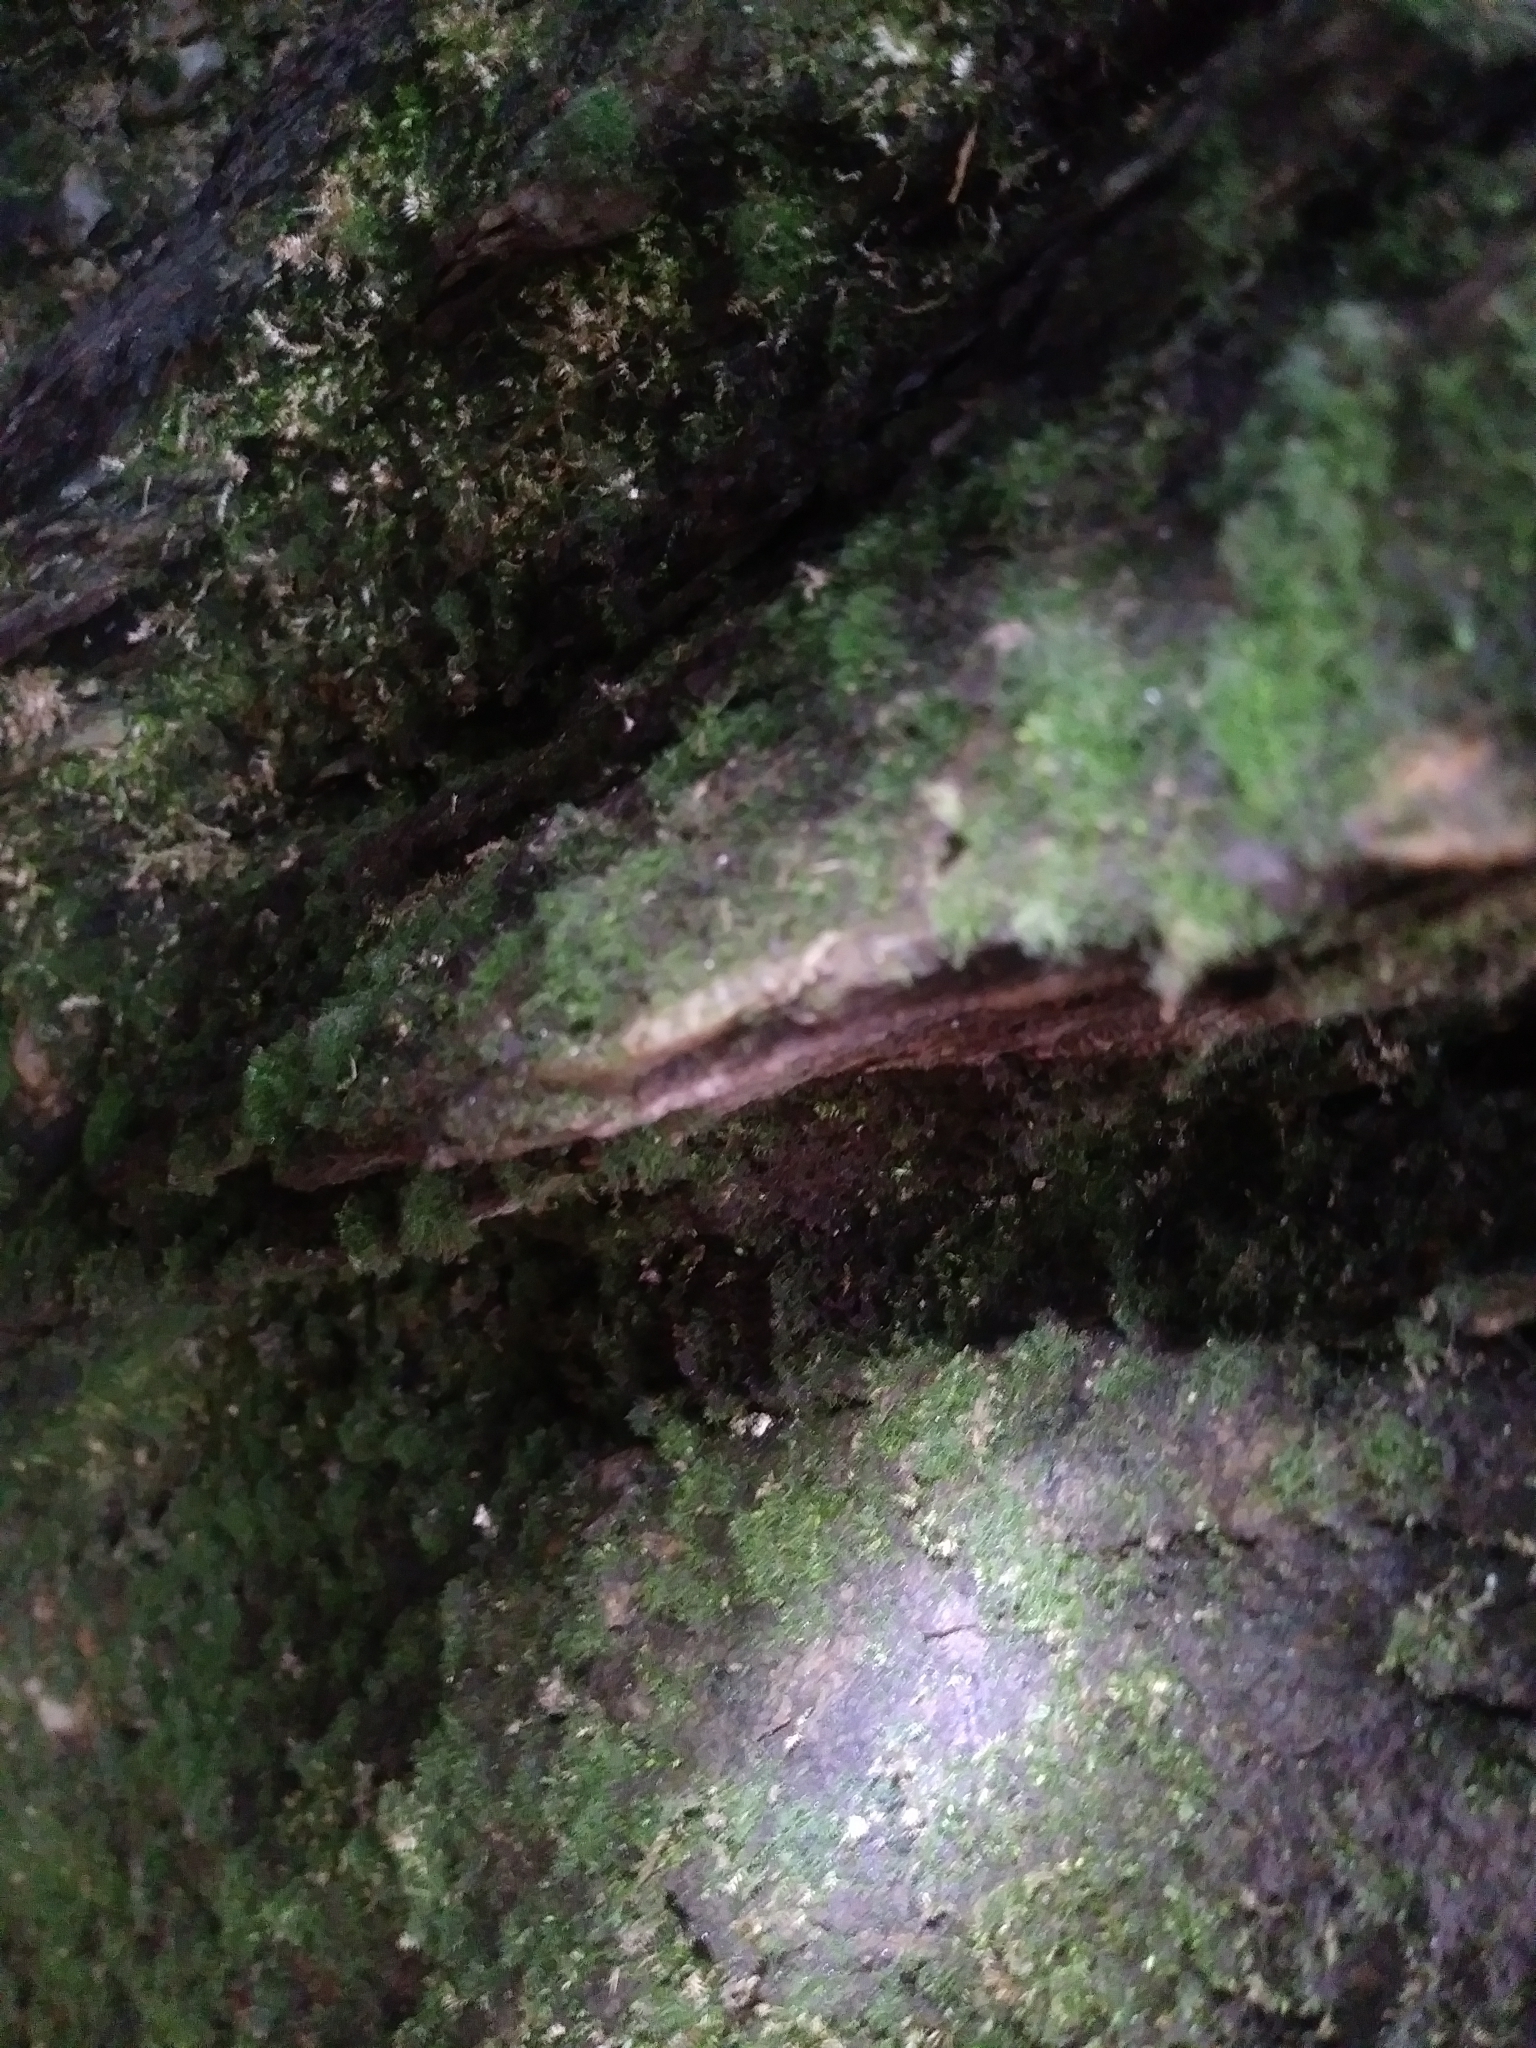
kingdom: Plantae
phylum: Tracheophyta
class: Polypodiopsida
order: Hymenophyllales
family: Hymenophyllaceae
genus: Crepidomanes
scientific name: Crepidomanes intricatum
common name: Weft fern
